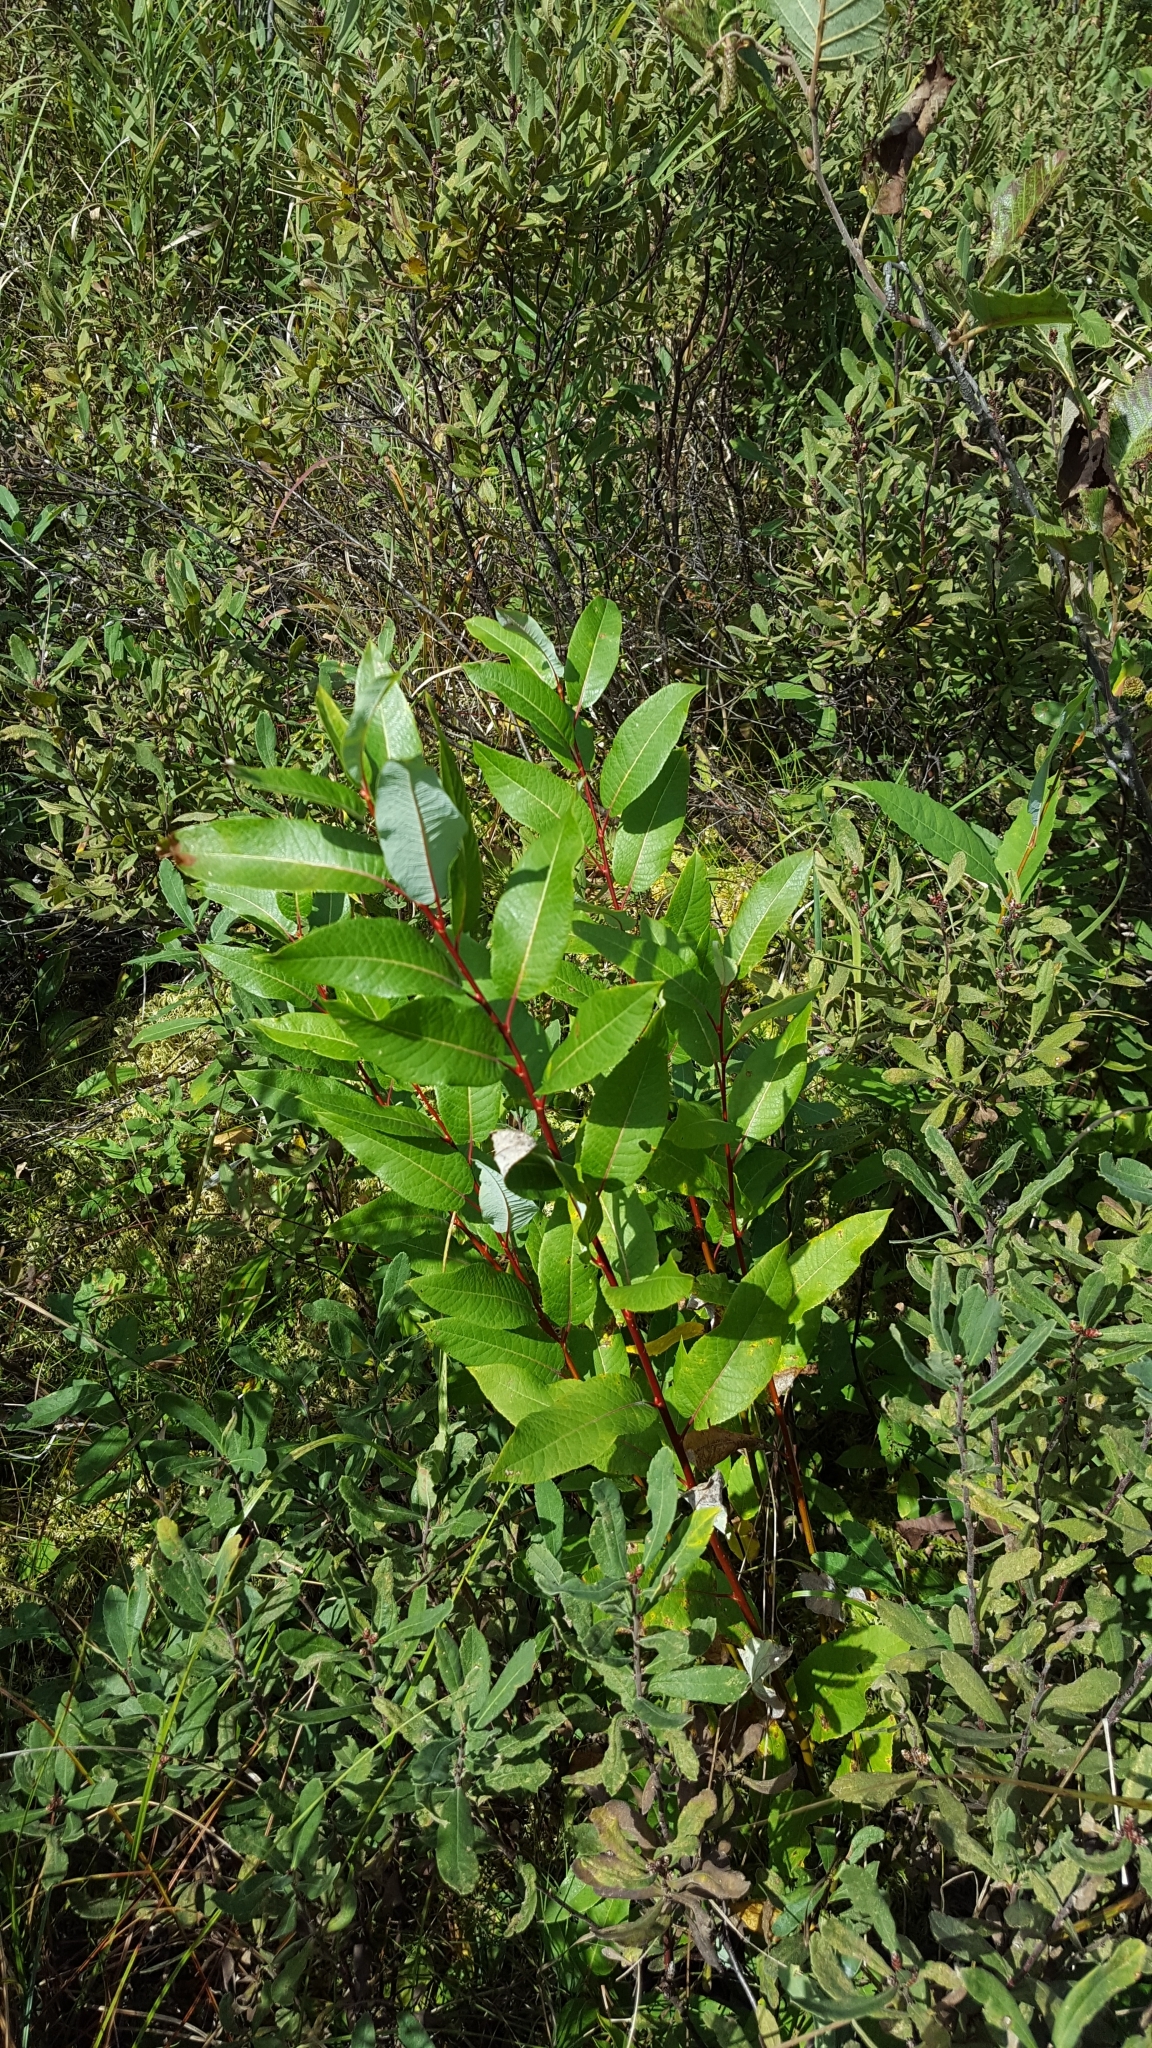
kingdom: Plantae
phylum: Tracheophyta
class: Magnoliopsida
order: Malpighiales
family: Salicaceae
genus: Salix
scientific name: Salix pyrifolia
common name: Balsam willow
